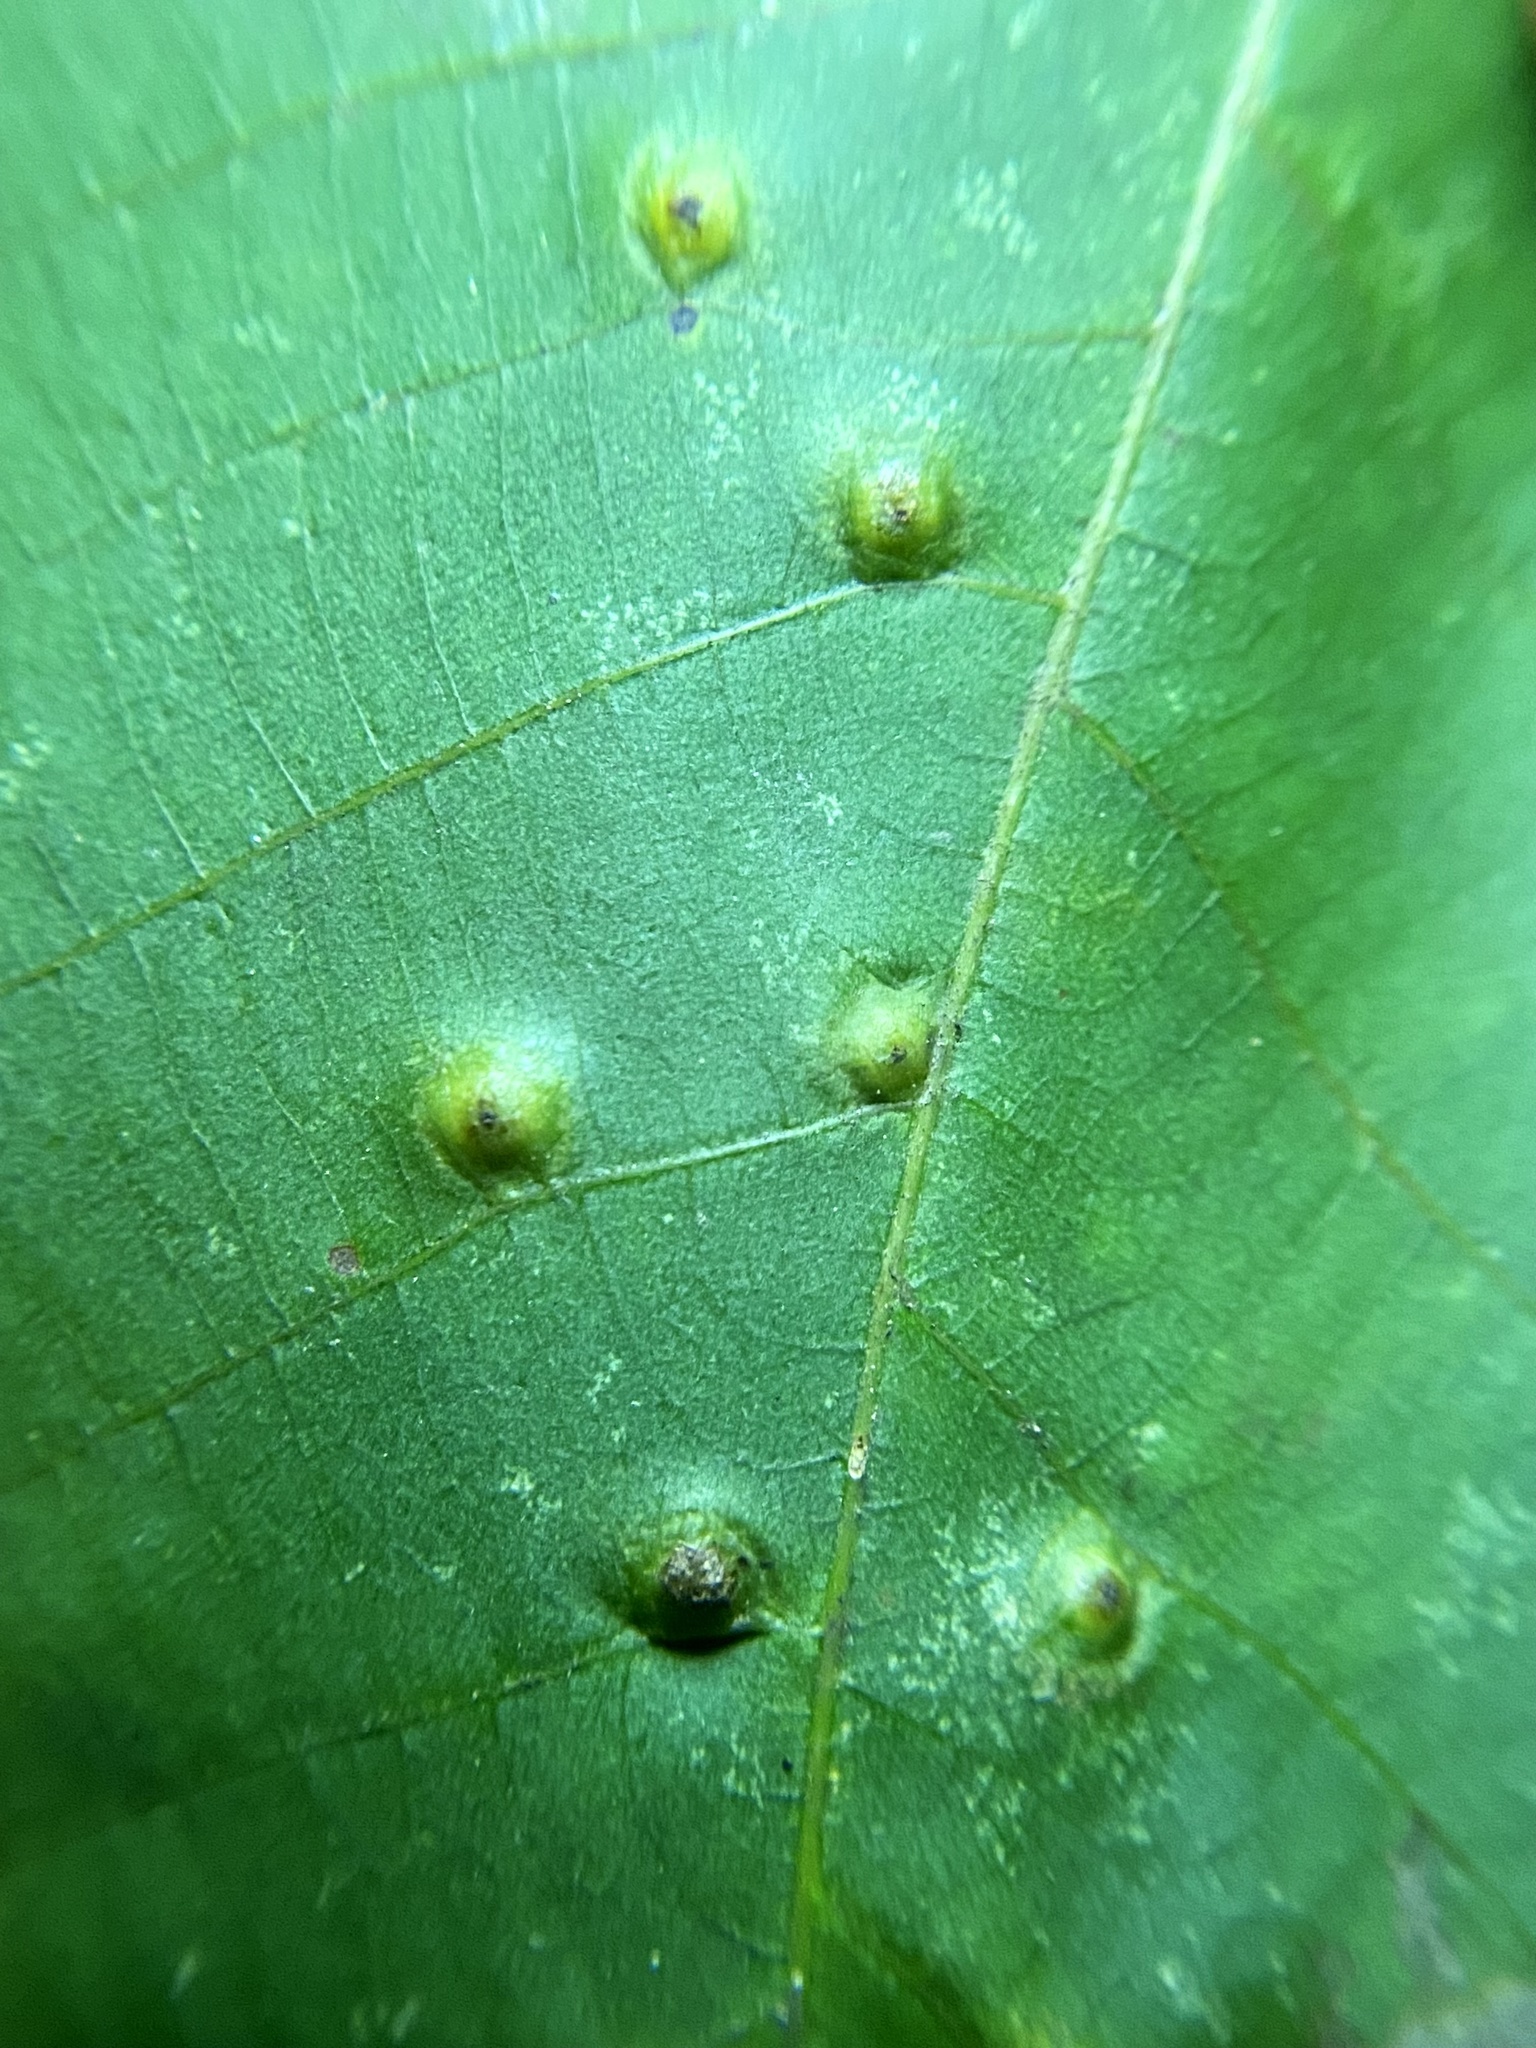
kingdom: Animalia
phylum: Arthropoda
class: Insecta
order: Diptera
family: Cecidomyiidae
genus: Caryomyia
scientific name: Caryomyia tubicola
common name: Hickory bullet gall midge
